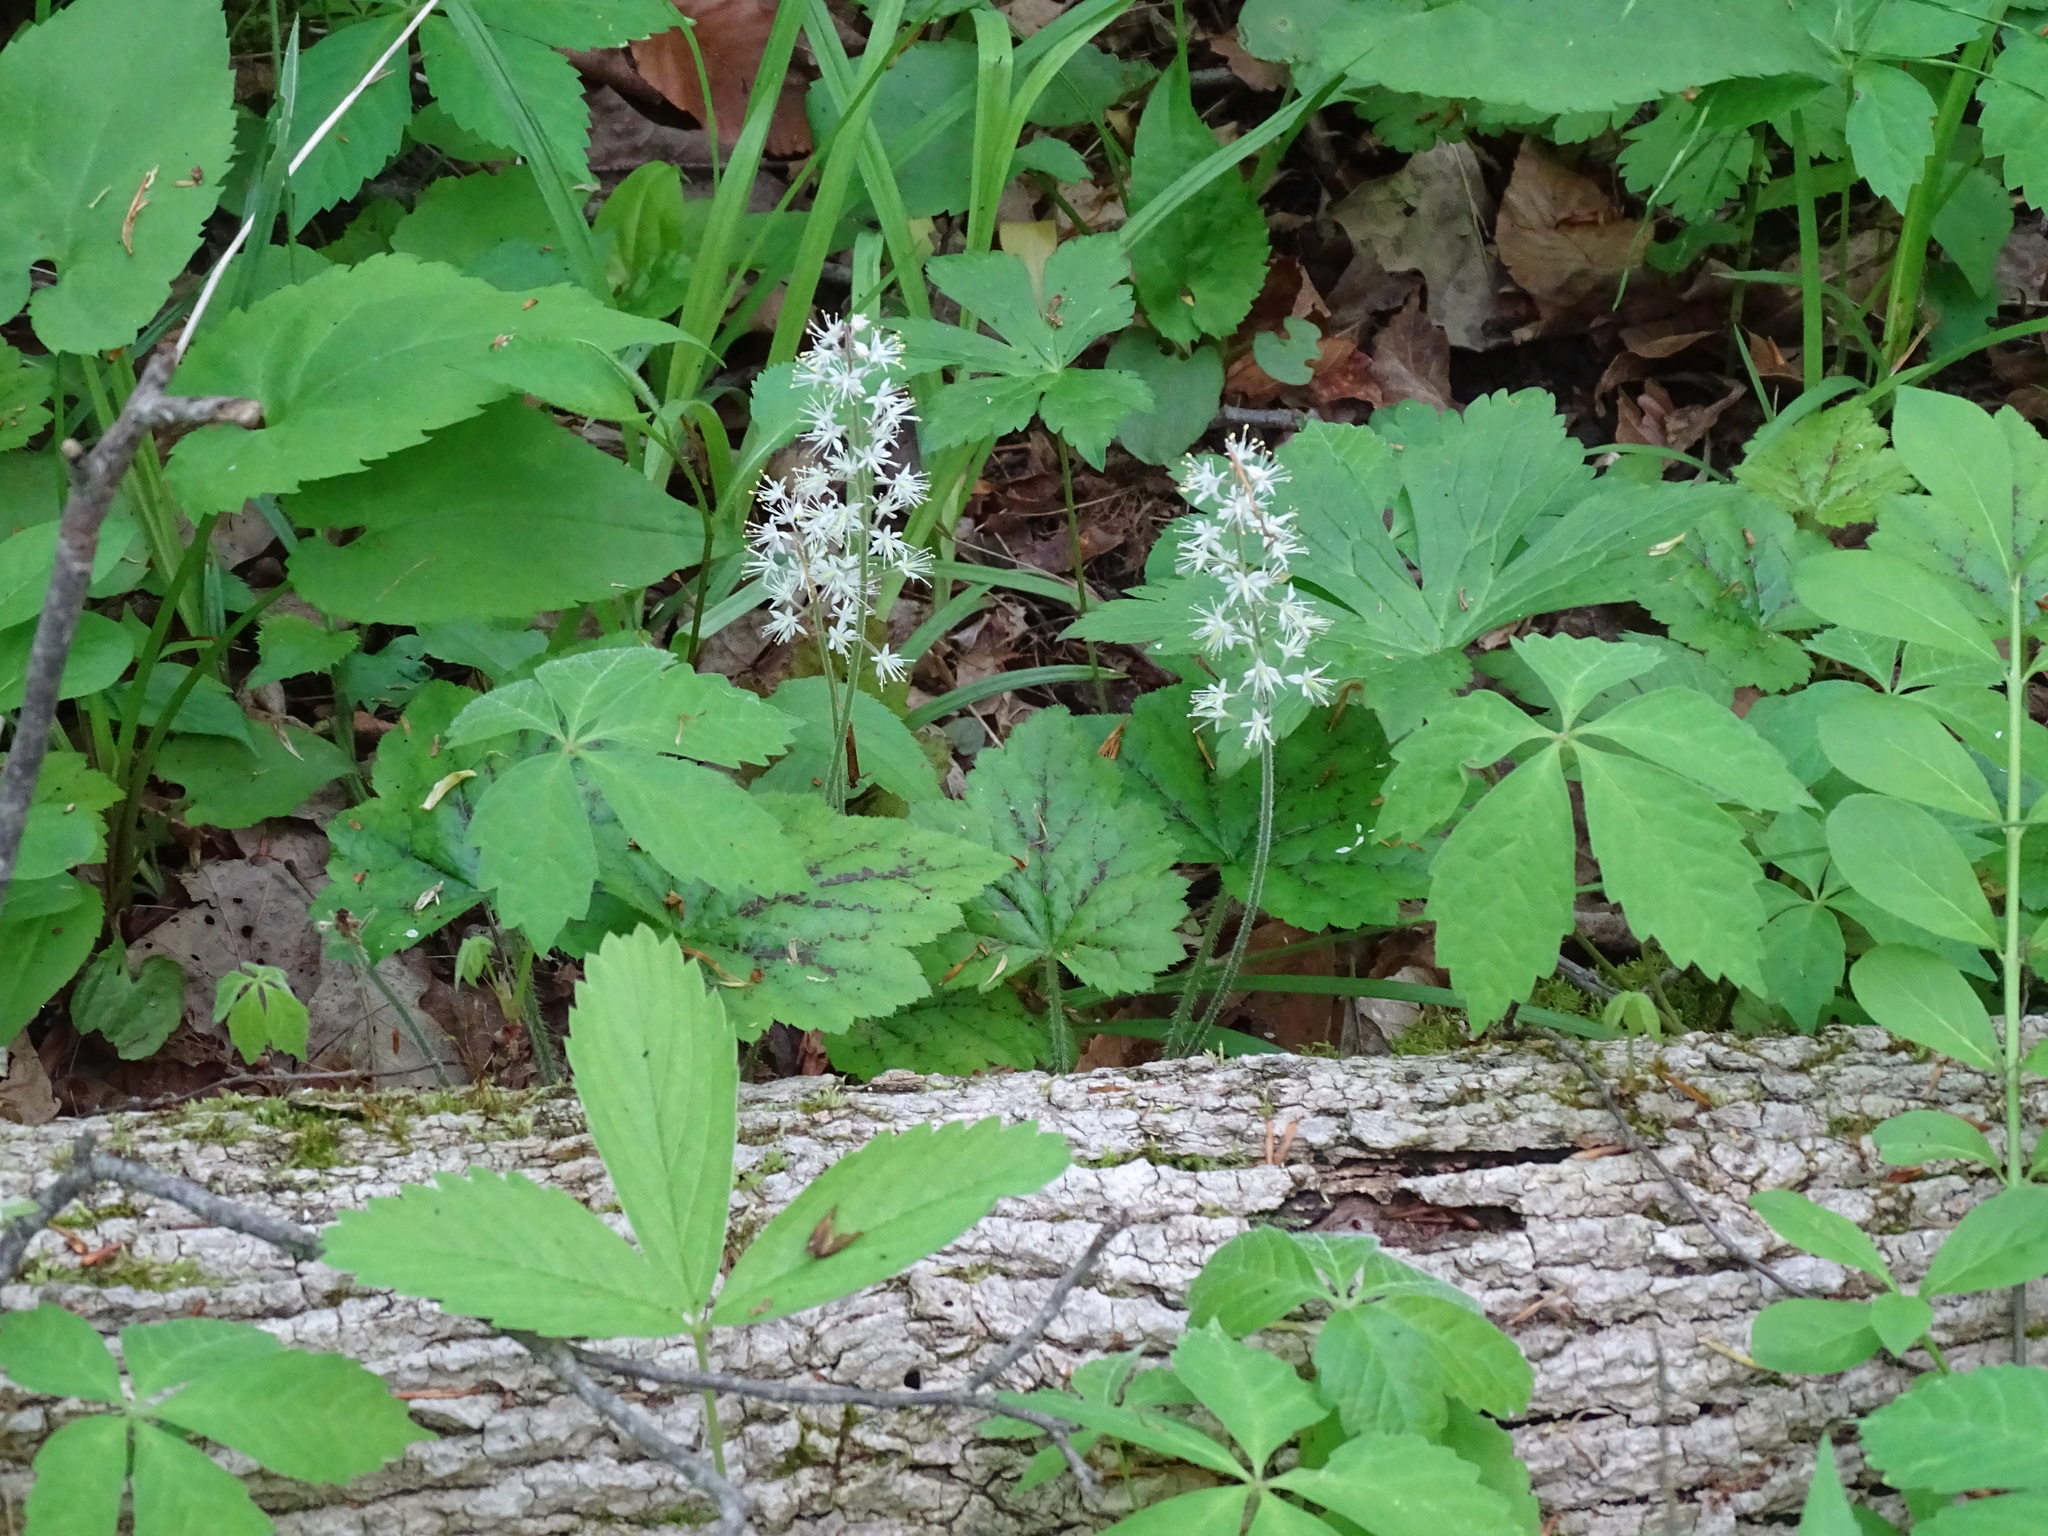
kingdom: Plantae
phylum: Tracheophyta
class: Magnoliopsida
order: Saxifragales
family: Saxifragaceae
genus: Tiarella
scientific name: Tiarella stolonifera
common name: Stoloniferous foamflower
